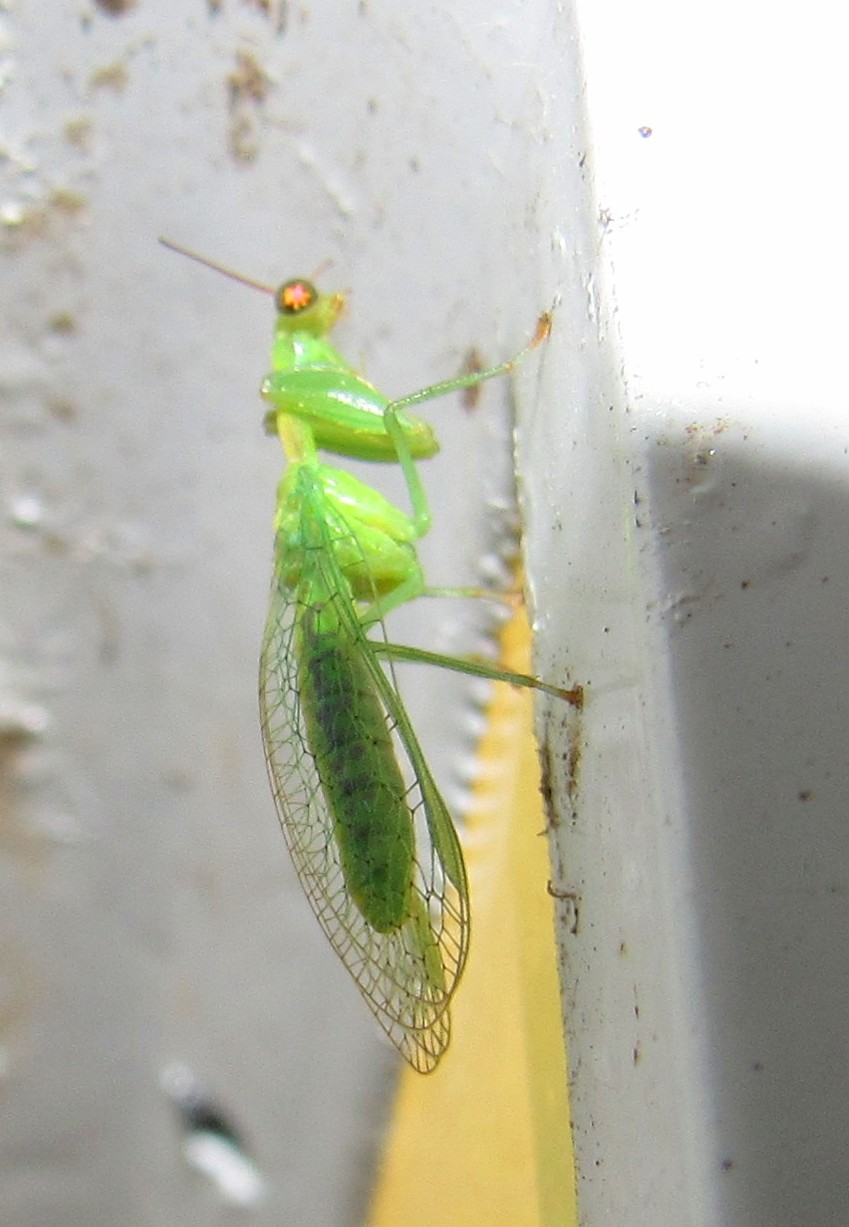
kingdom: Animalia
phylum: Arthropoda
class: Insecta
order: Neuroptera
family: Mantispidae
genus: Zeugomantispa
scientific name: Zeugomantispa virescens
